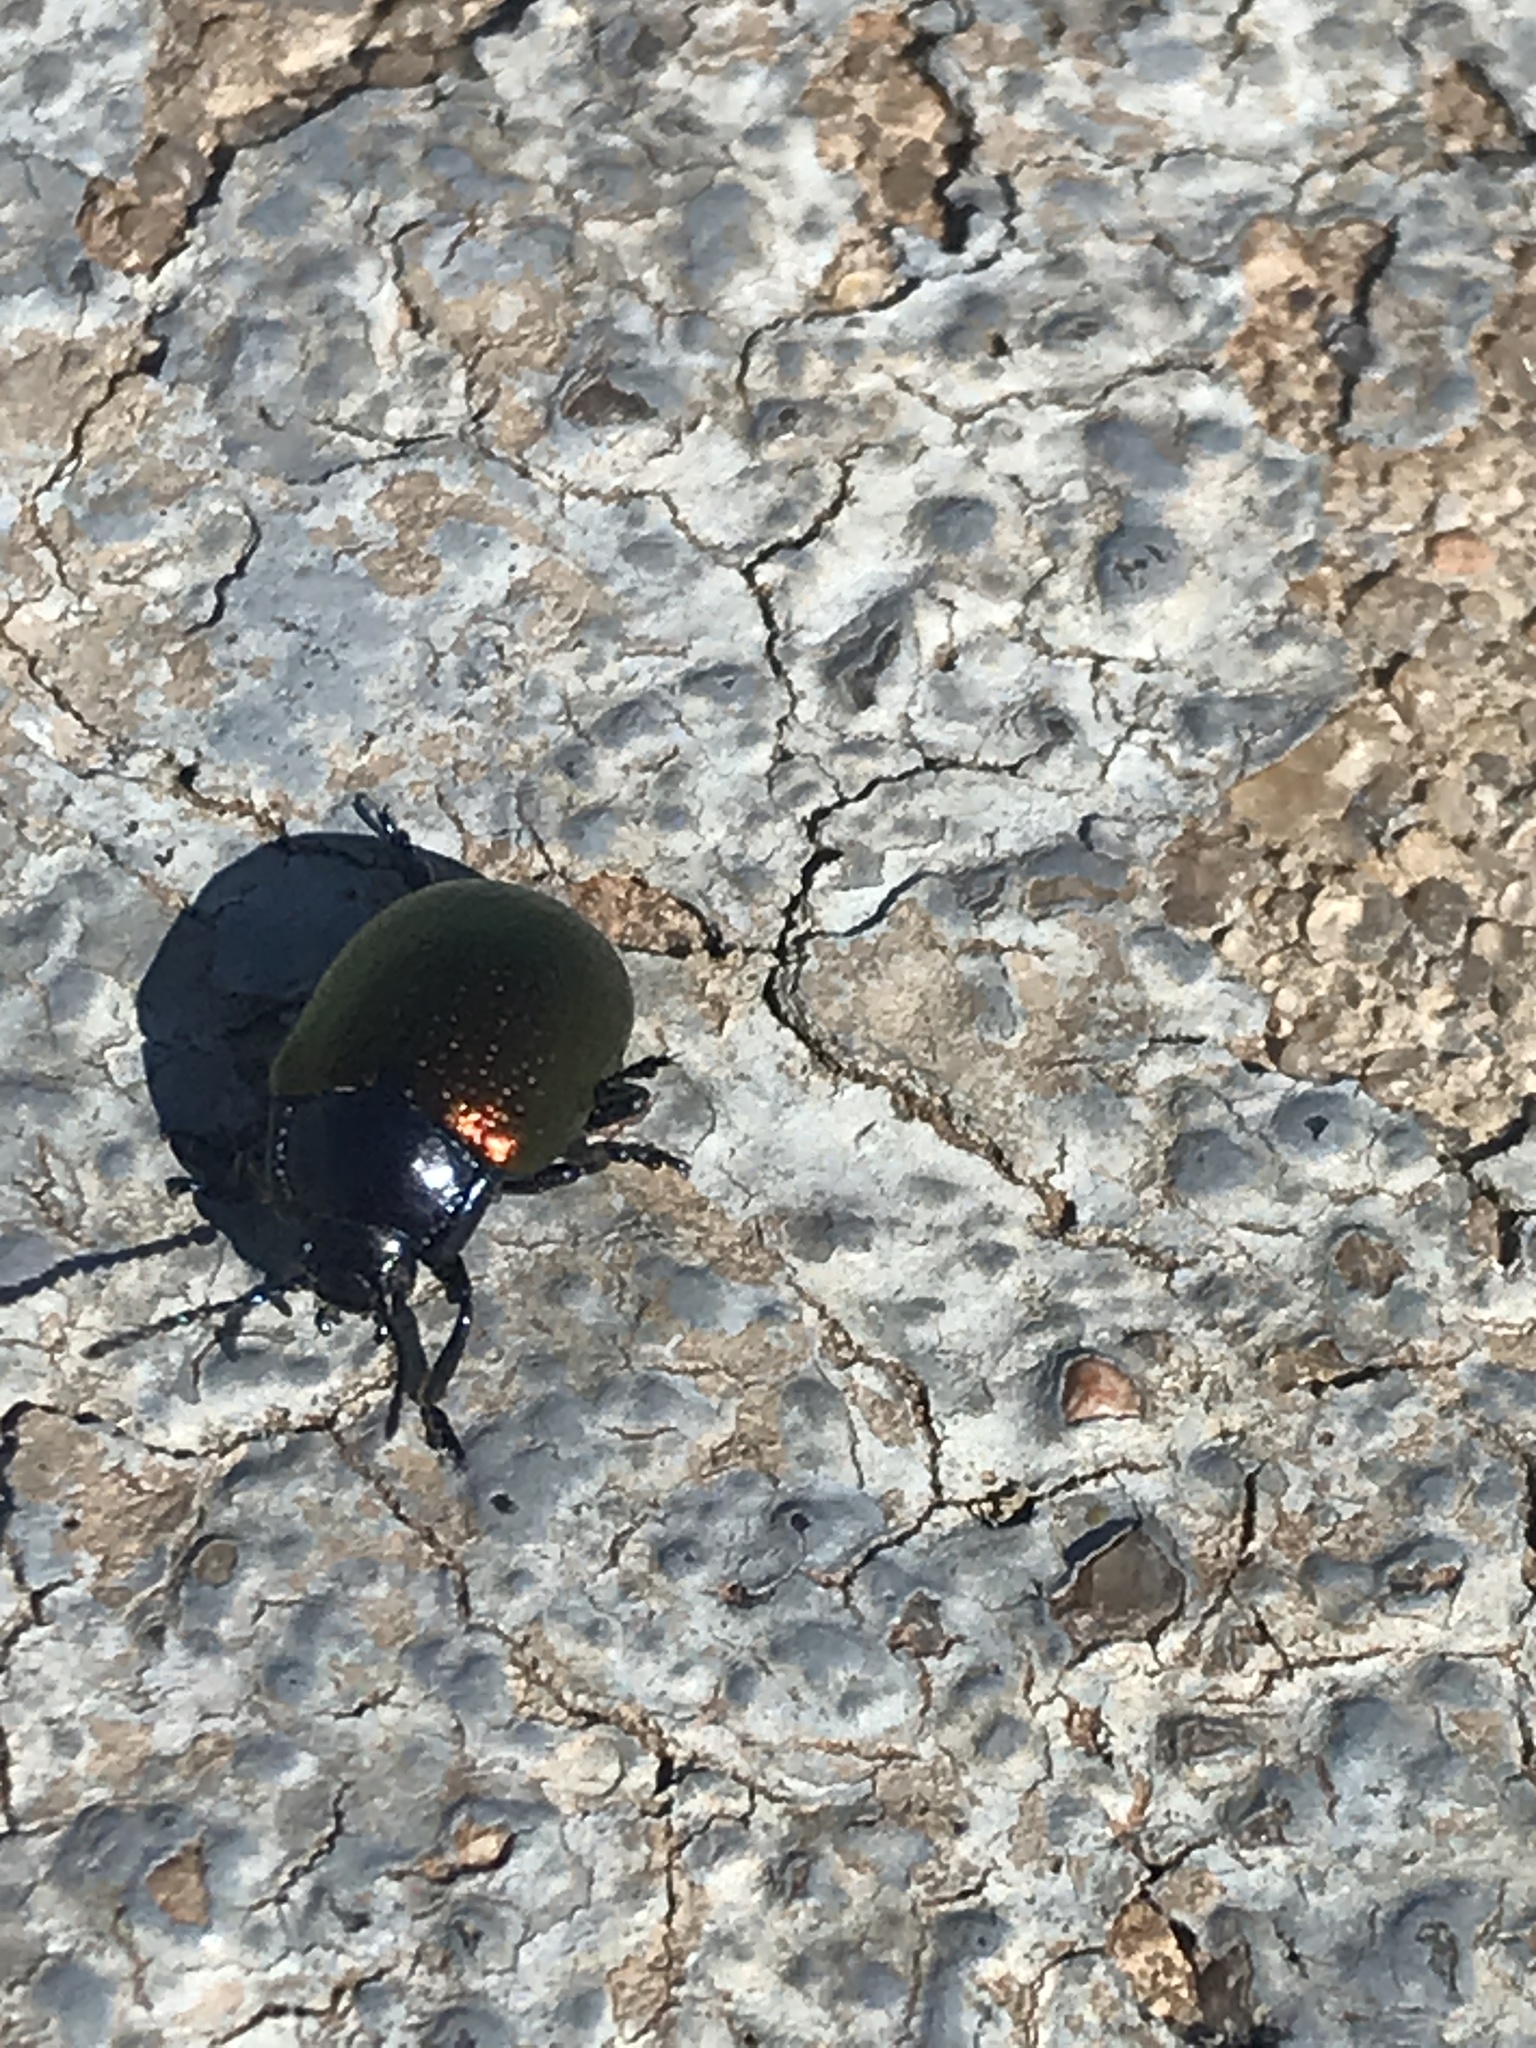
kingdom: Animalia
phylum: Arthropoda
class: Insecta
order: Coleoptera
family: Chrysomelidae
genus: Chrysolina
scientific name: Chrysolina auripennis
